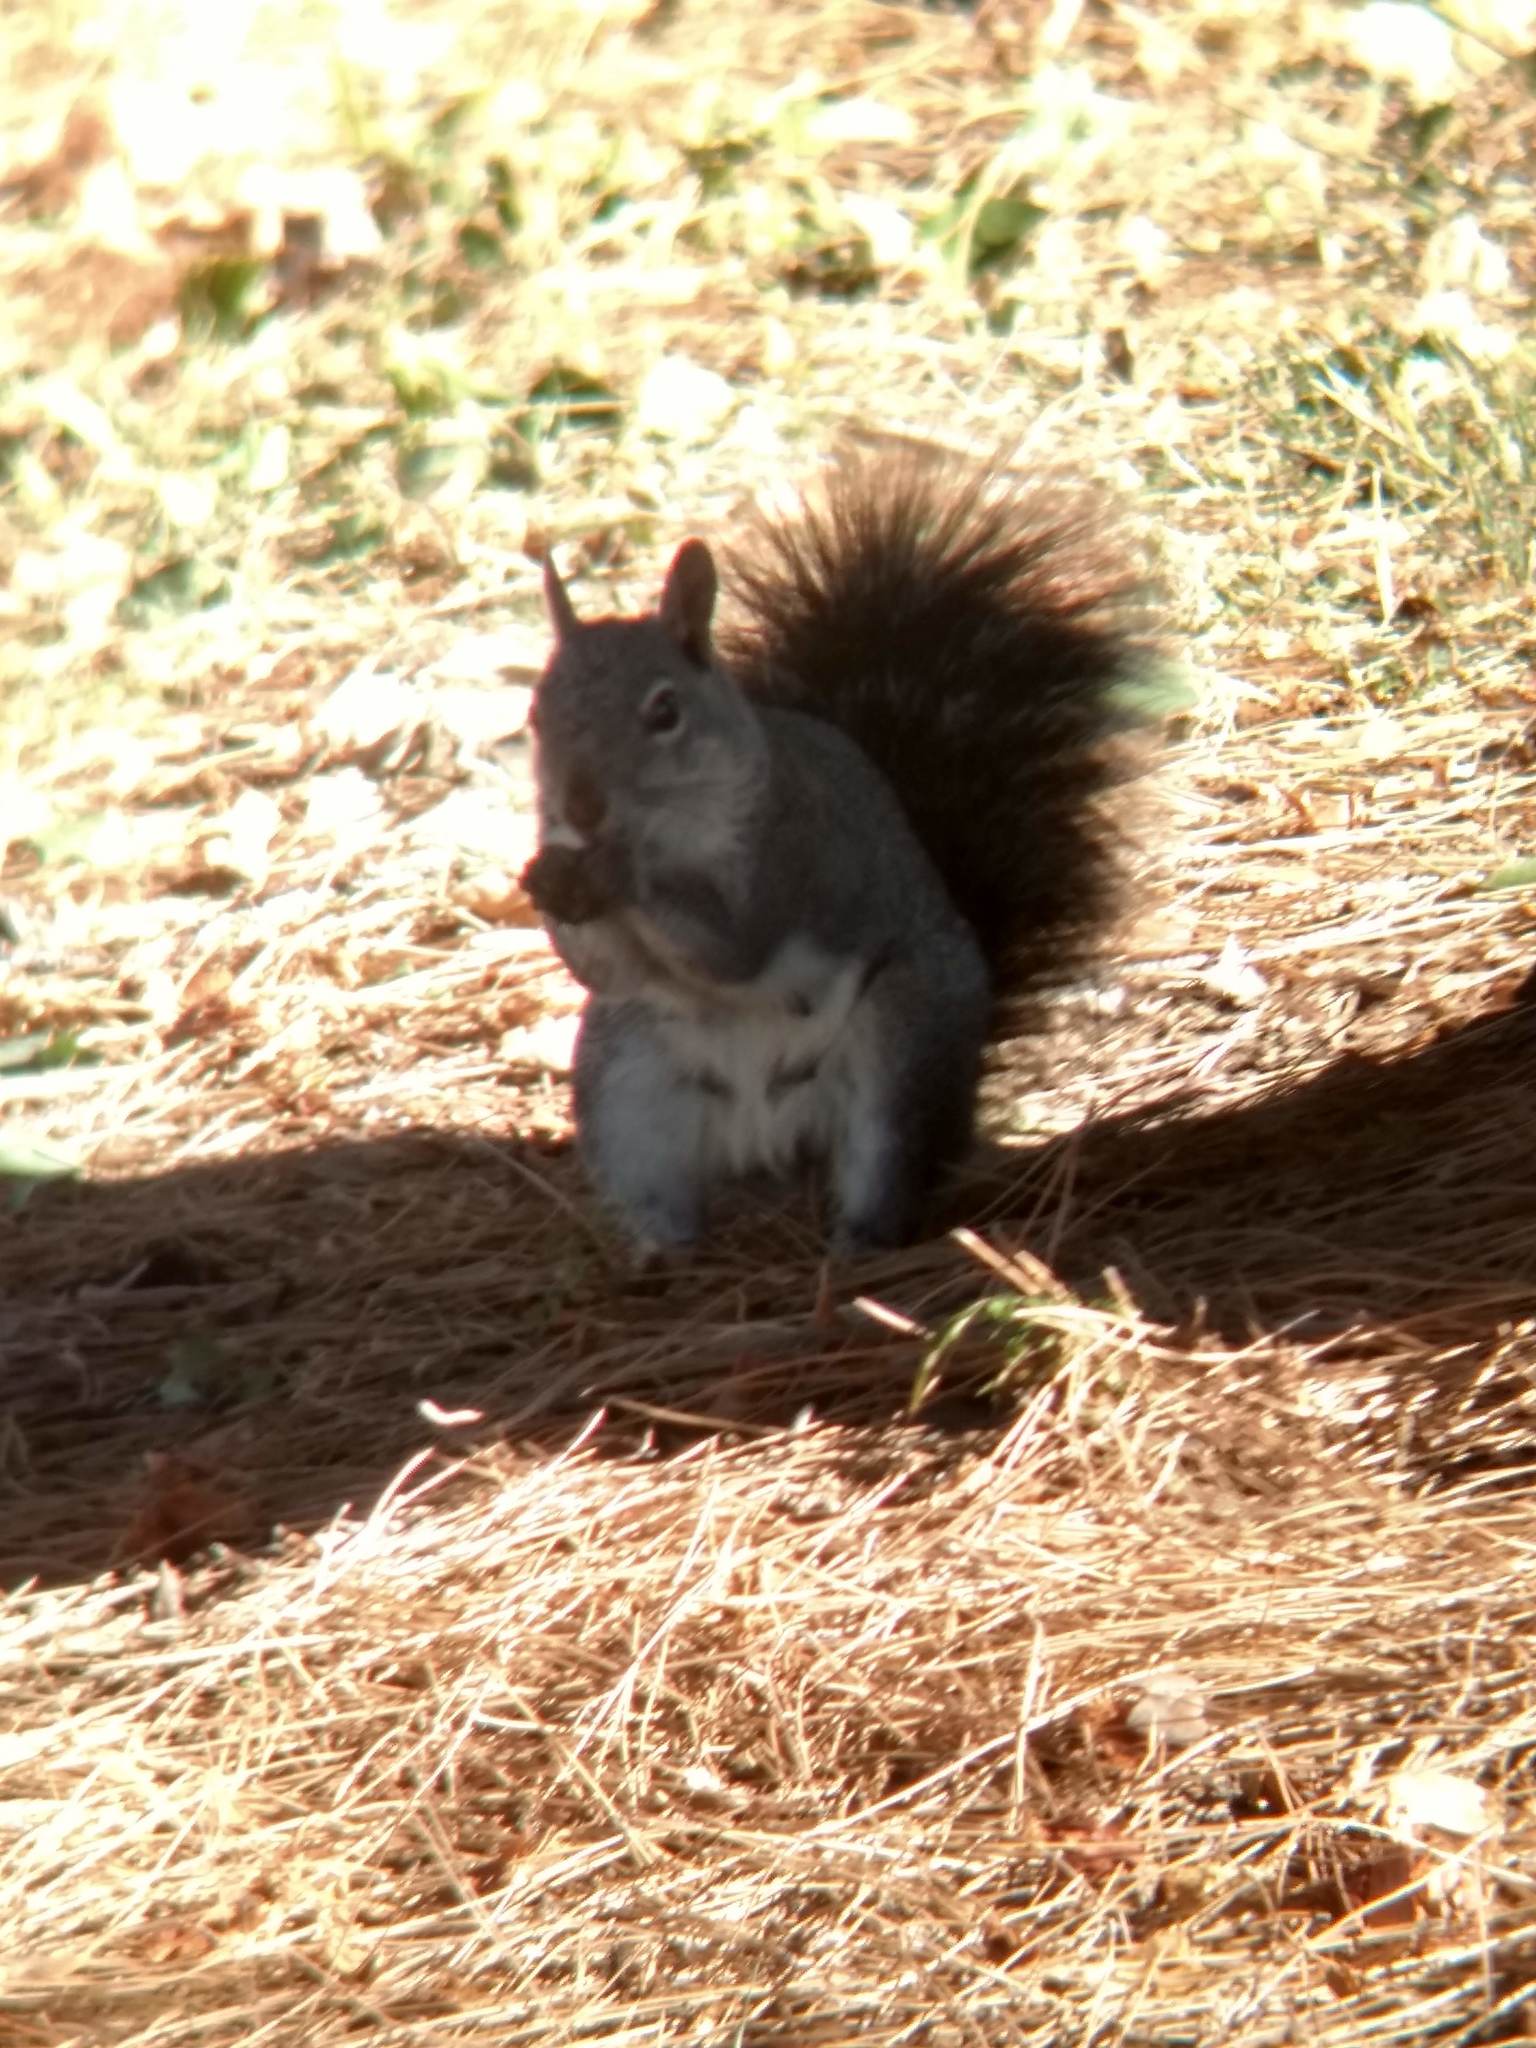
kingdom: Animalia
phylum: Chordata
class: Mammalia
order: Rodentia
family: Sciuridae
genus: Sciurus
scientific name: Sciurus griseus
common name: Western gray squirrel
